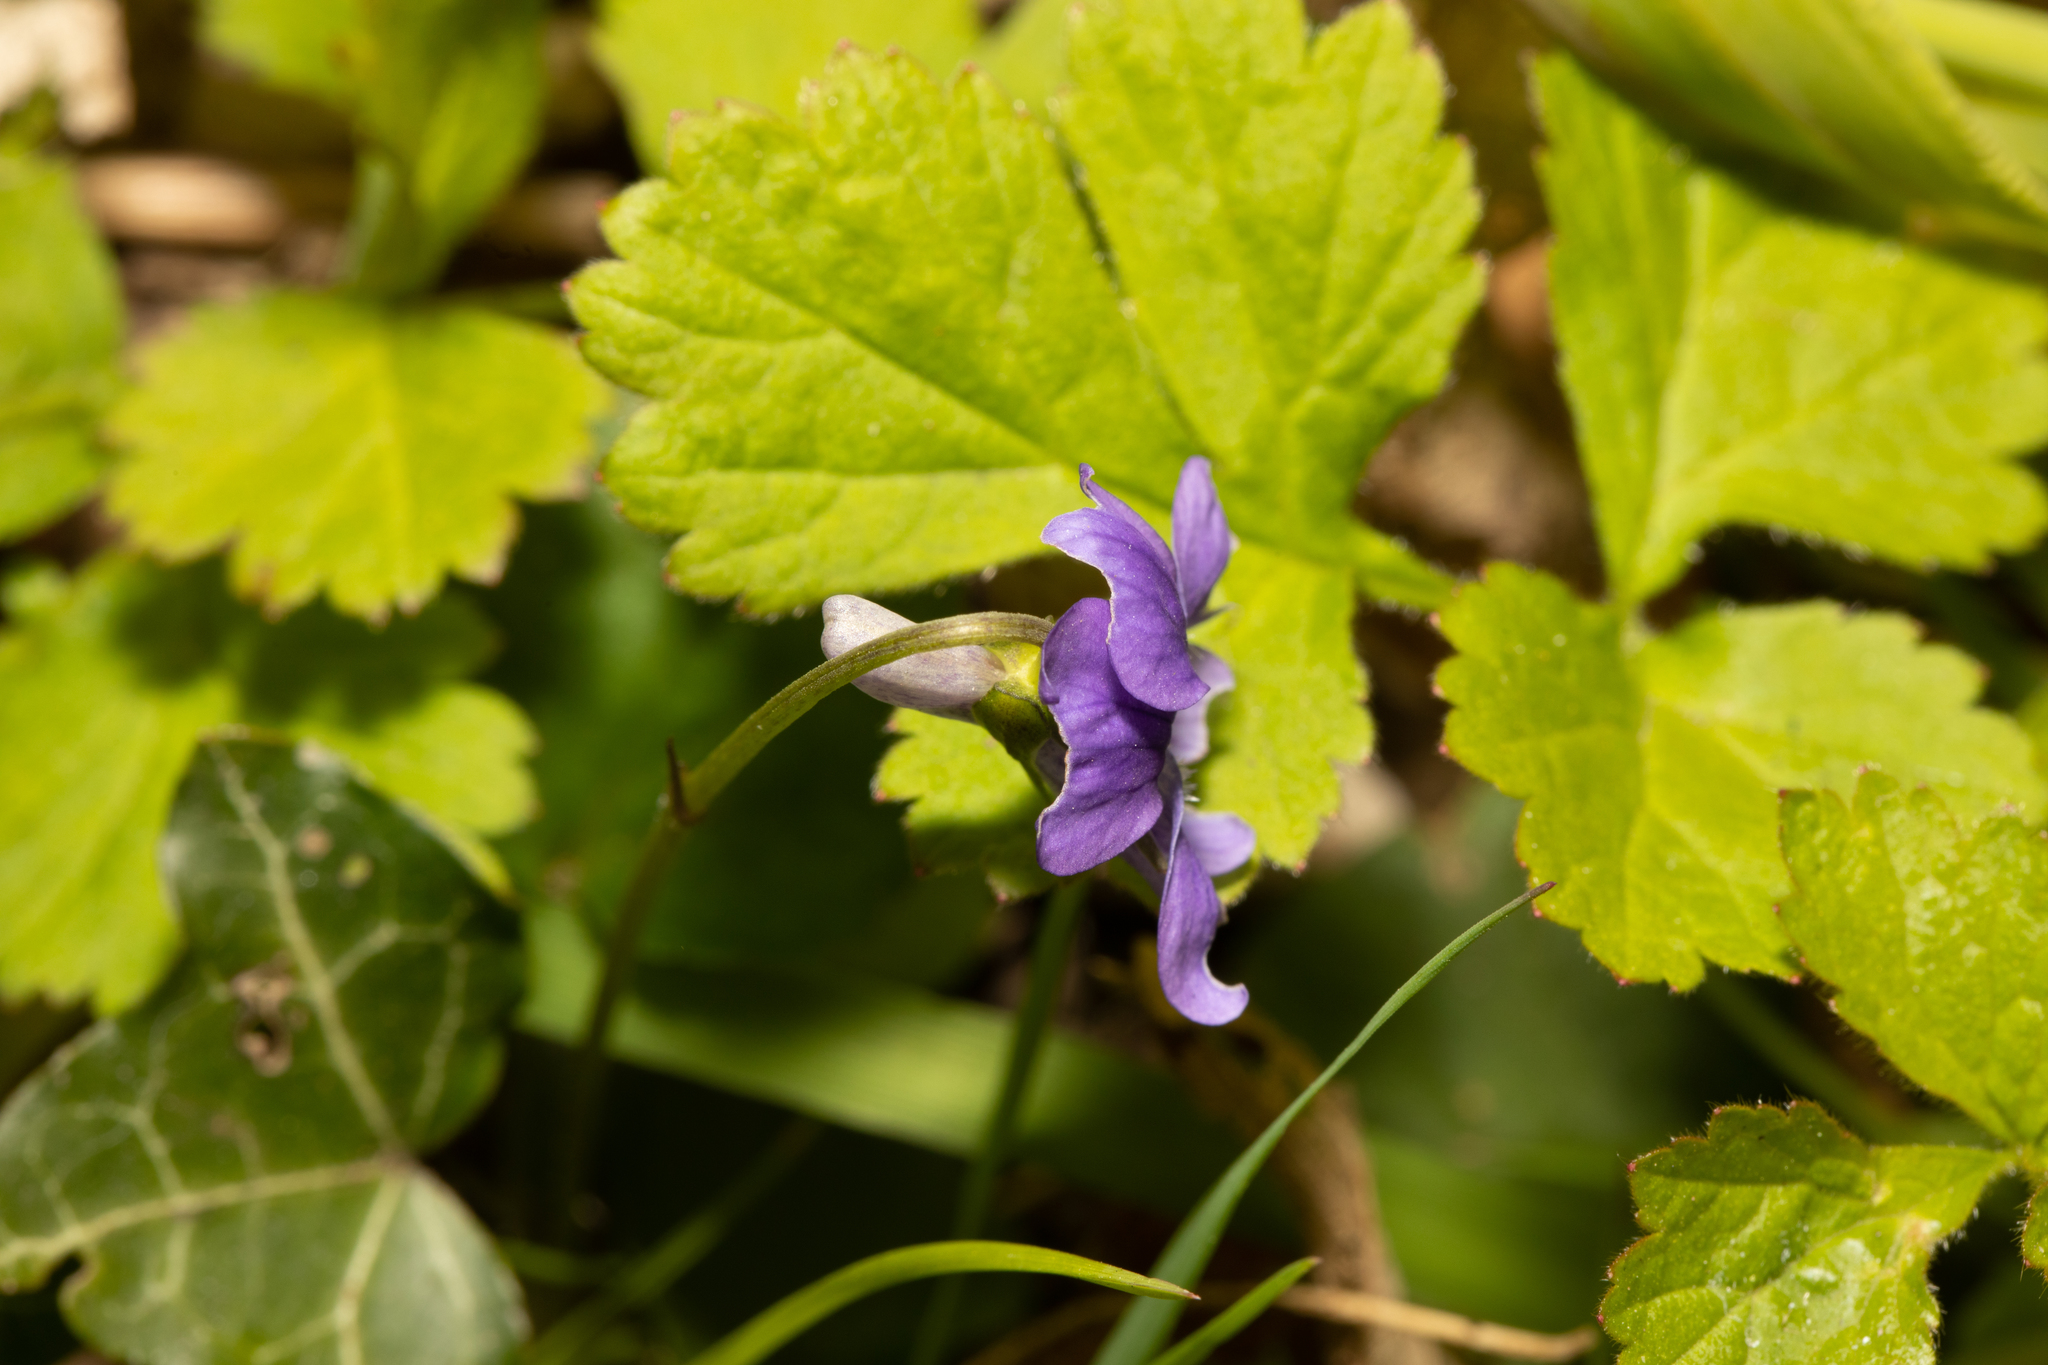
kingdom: Plantae
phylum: Tracheophyta
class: Magnoliopsida
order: Malpighiales
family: Violaceae
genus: Viola
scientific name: Viola riviniana
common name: Common dog-violet
